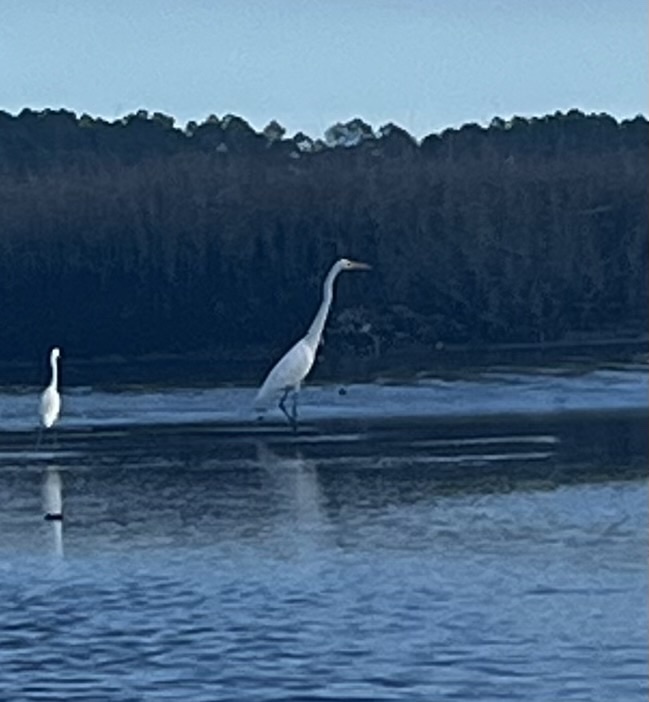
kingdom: Animalia
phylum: Chordata
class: Aves
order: Pelecaniformes
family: Ardeidae
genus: Ardea
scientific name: Ardea alba
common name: Great egret
